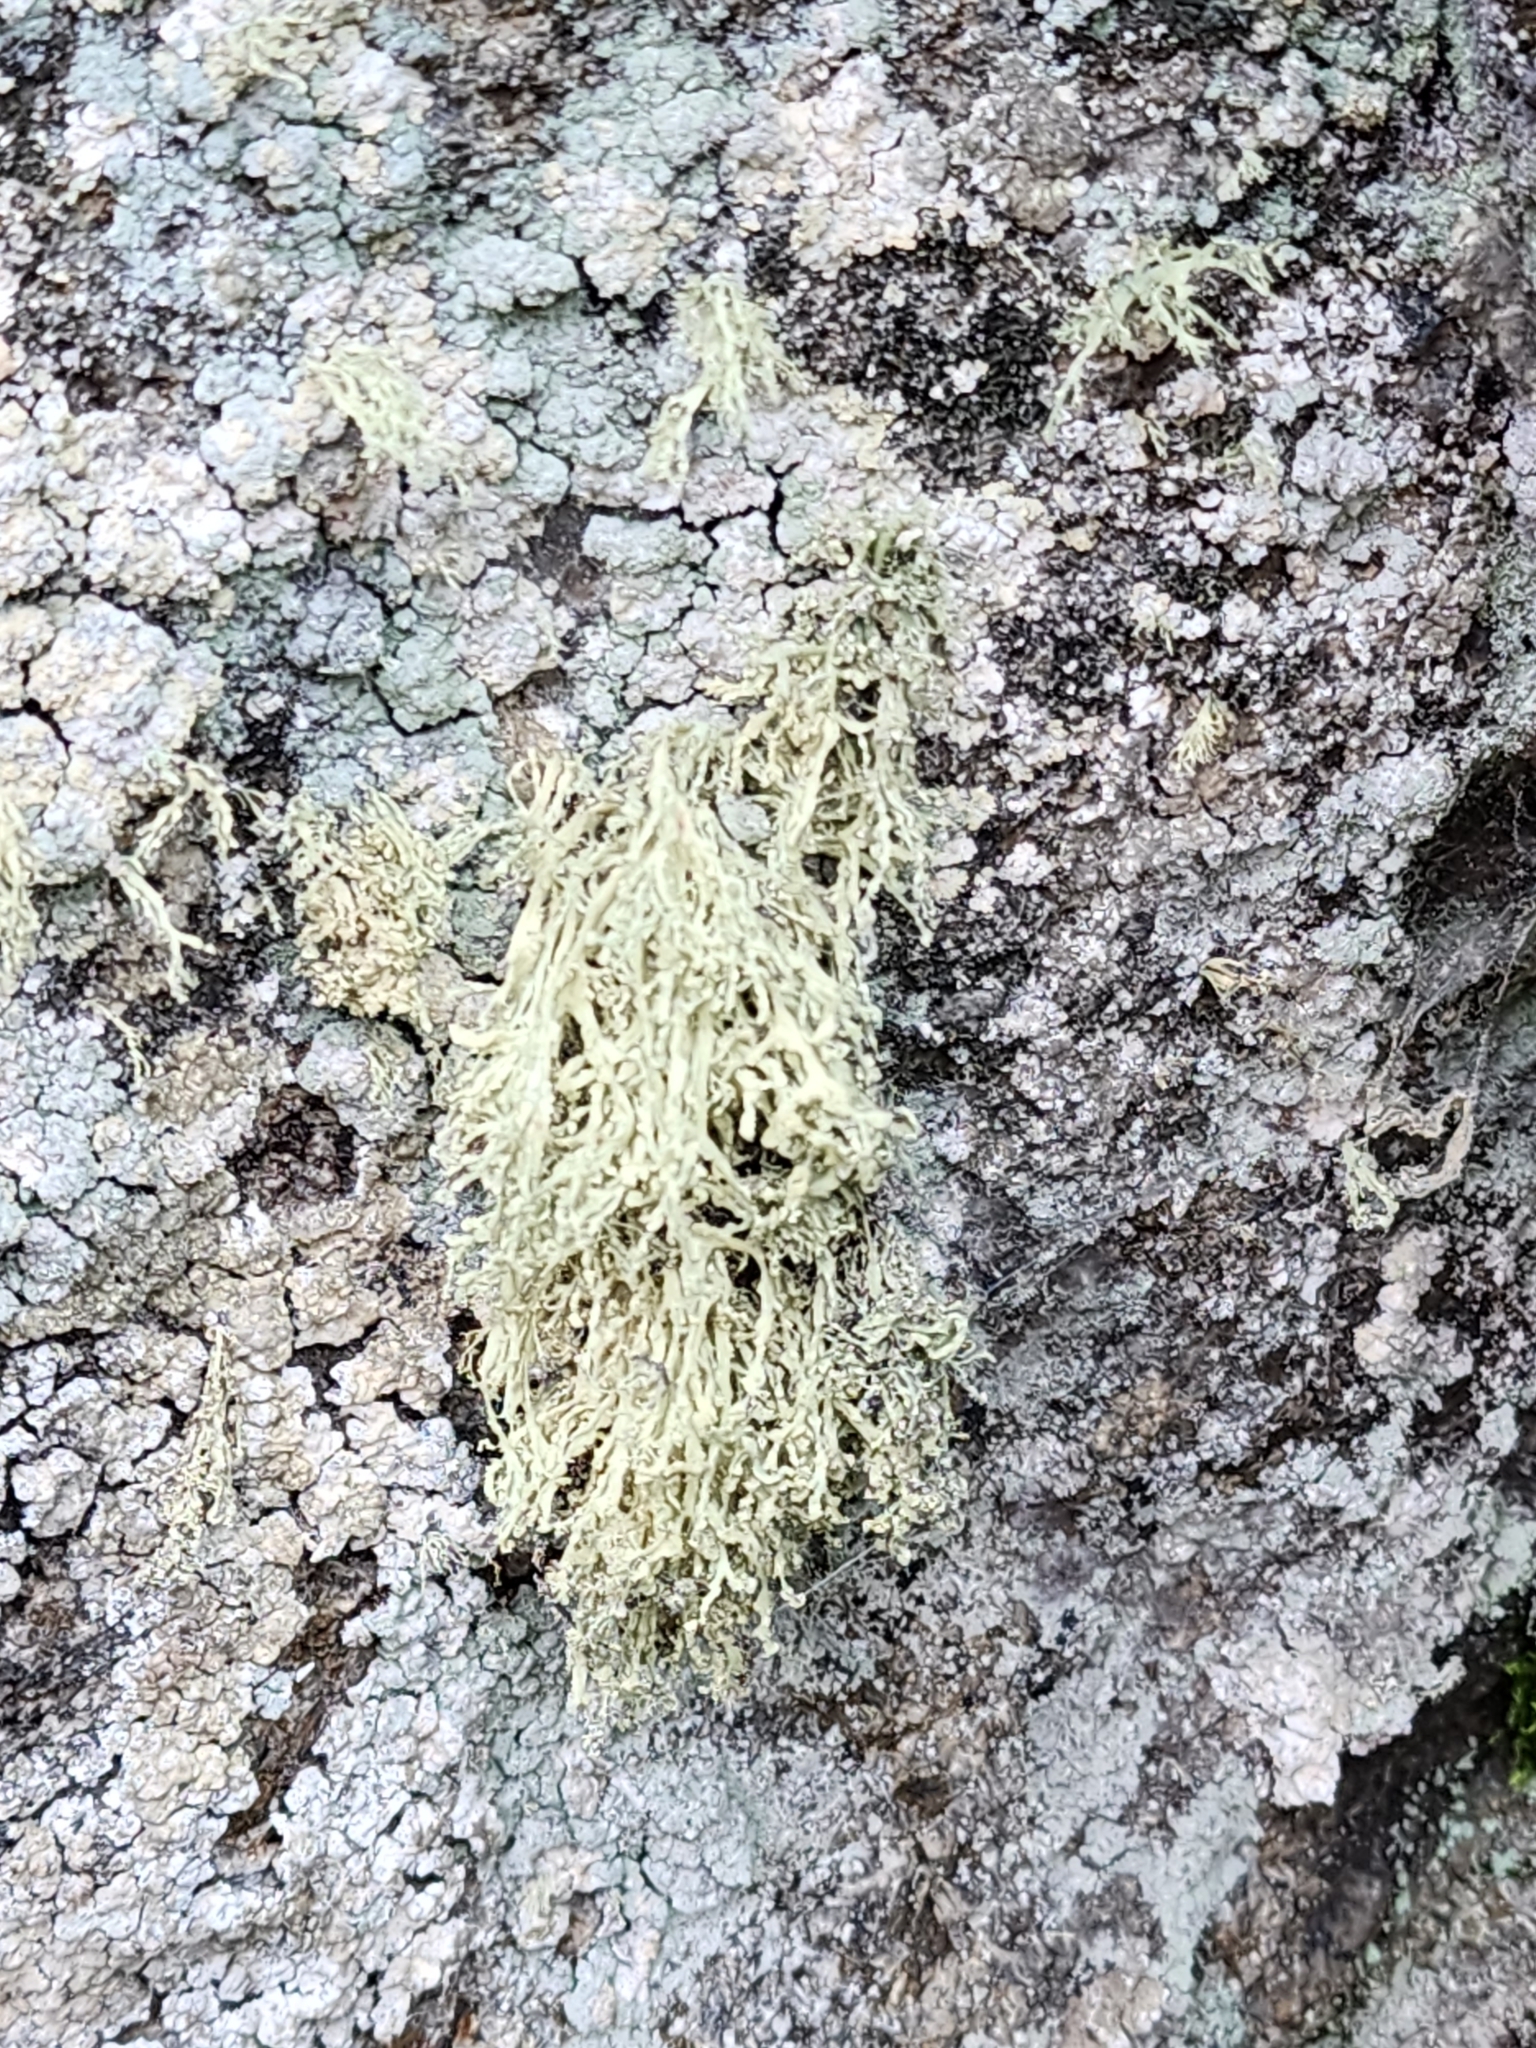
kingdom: Fungi
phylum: Ascomycota
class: Lecanoromycetes
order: Lecanorales
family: Ramalinaceae
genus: Ramalina
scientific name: Ramalina intermedia
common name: Rock bushy lichen
